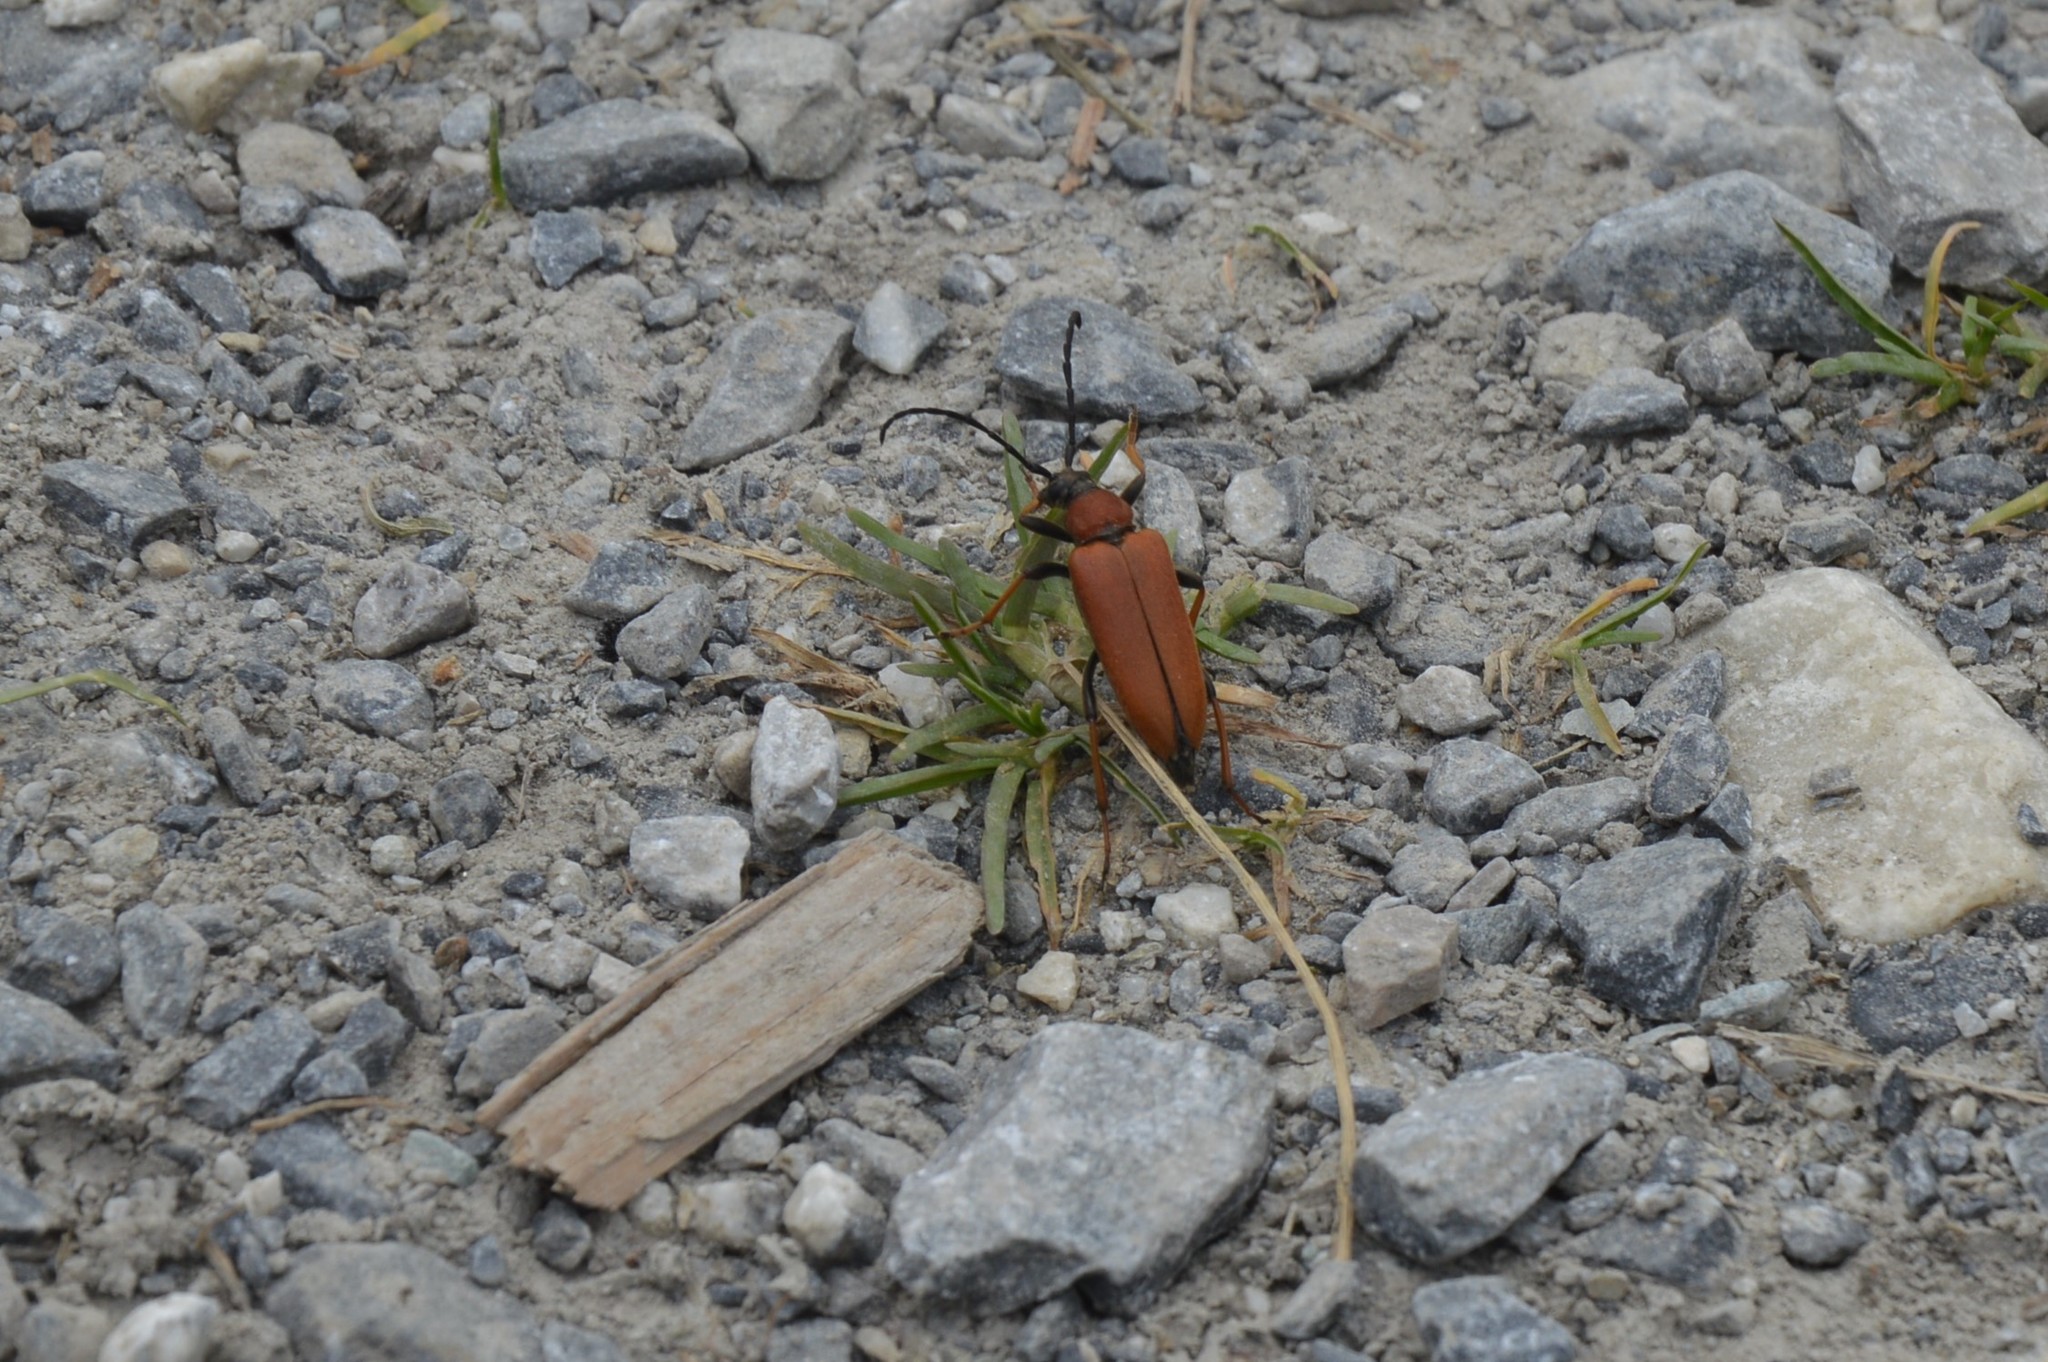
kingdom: Animalia
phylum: Arthropoda
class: Insecta
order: Coleoptera
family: Cerambycidae
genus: Stictoleptura
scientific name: Stictoleptura rubra
